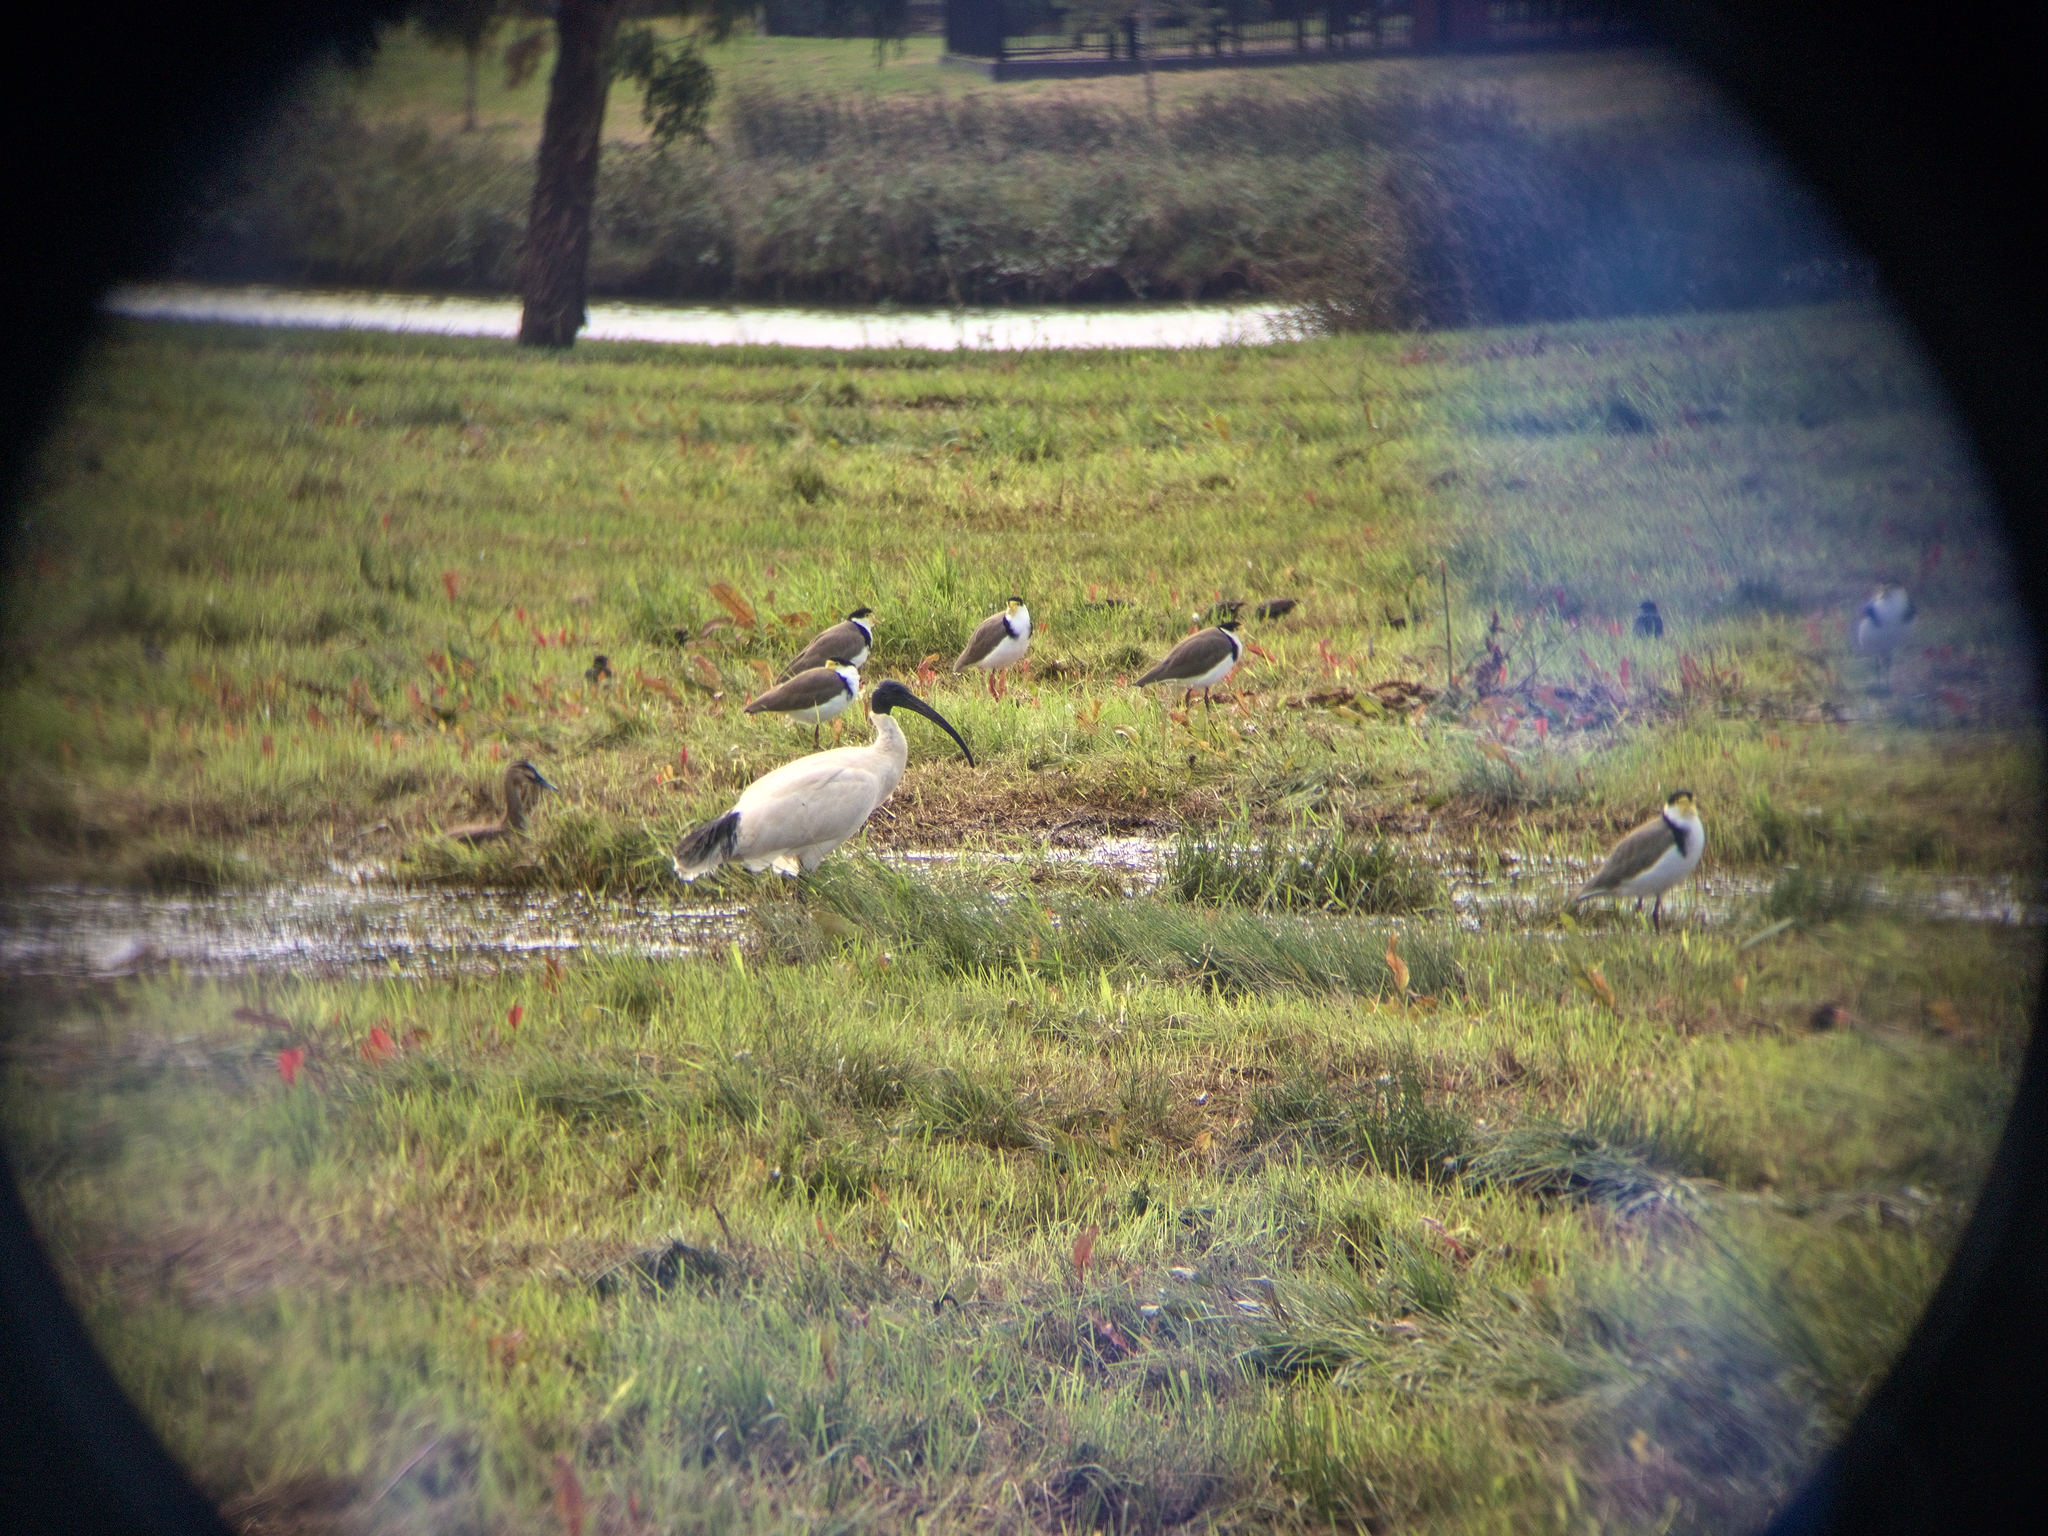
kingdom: Animalia
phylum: Chordata
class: Aves
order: Charadriiformes
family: Charadriidae
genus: Vanellus
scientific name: Vanellus miles
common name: Masked lapwing
